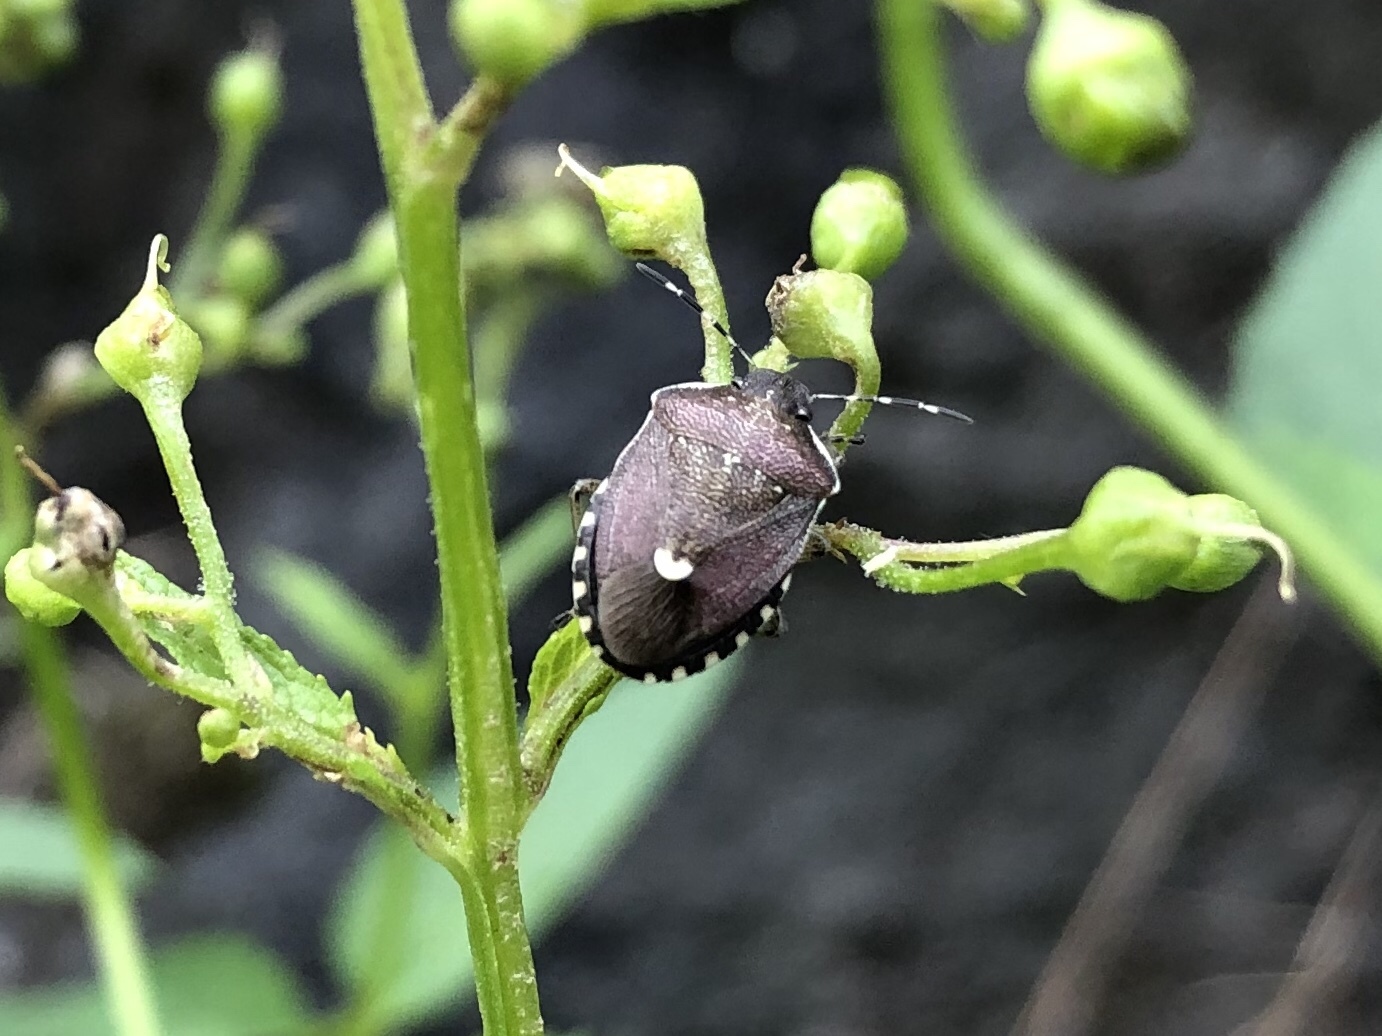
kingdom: Animalia
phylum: Arthropoda
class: Insecta
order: Hemiptera
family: Pentatomidae
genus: Holcostethus
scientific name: Holcostethus sphacelatus
